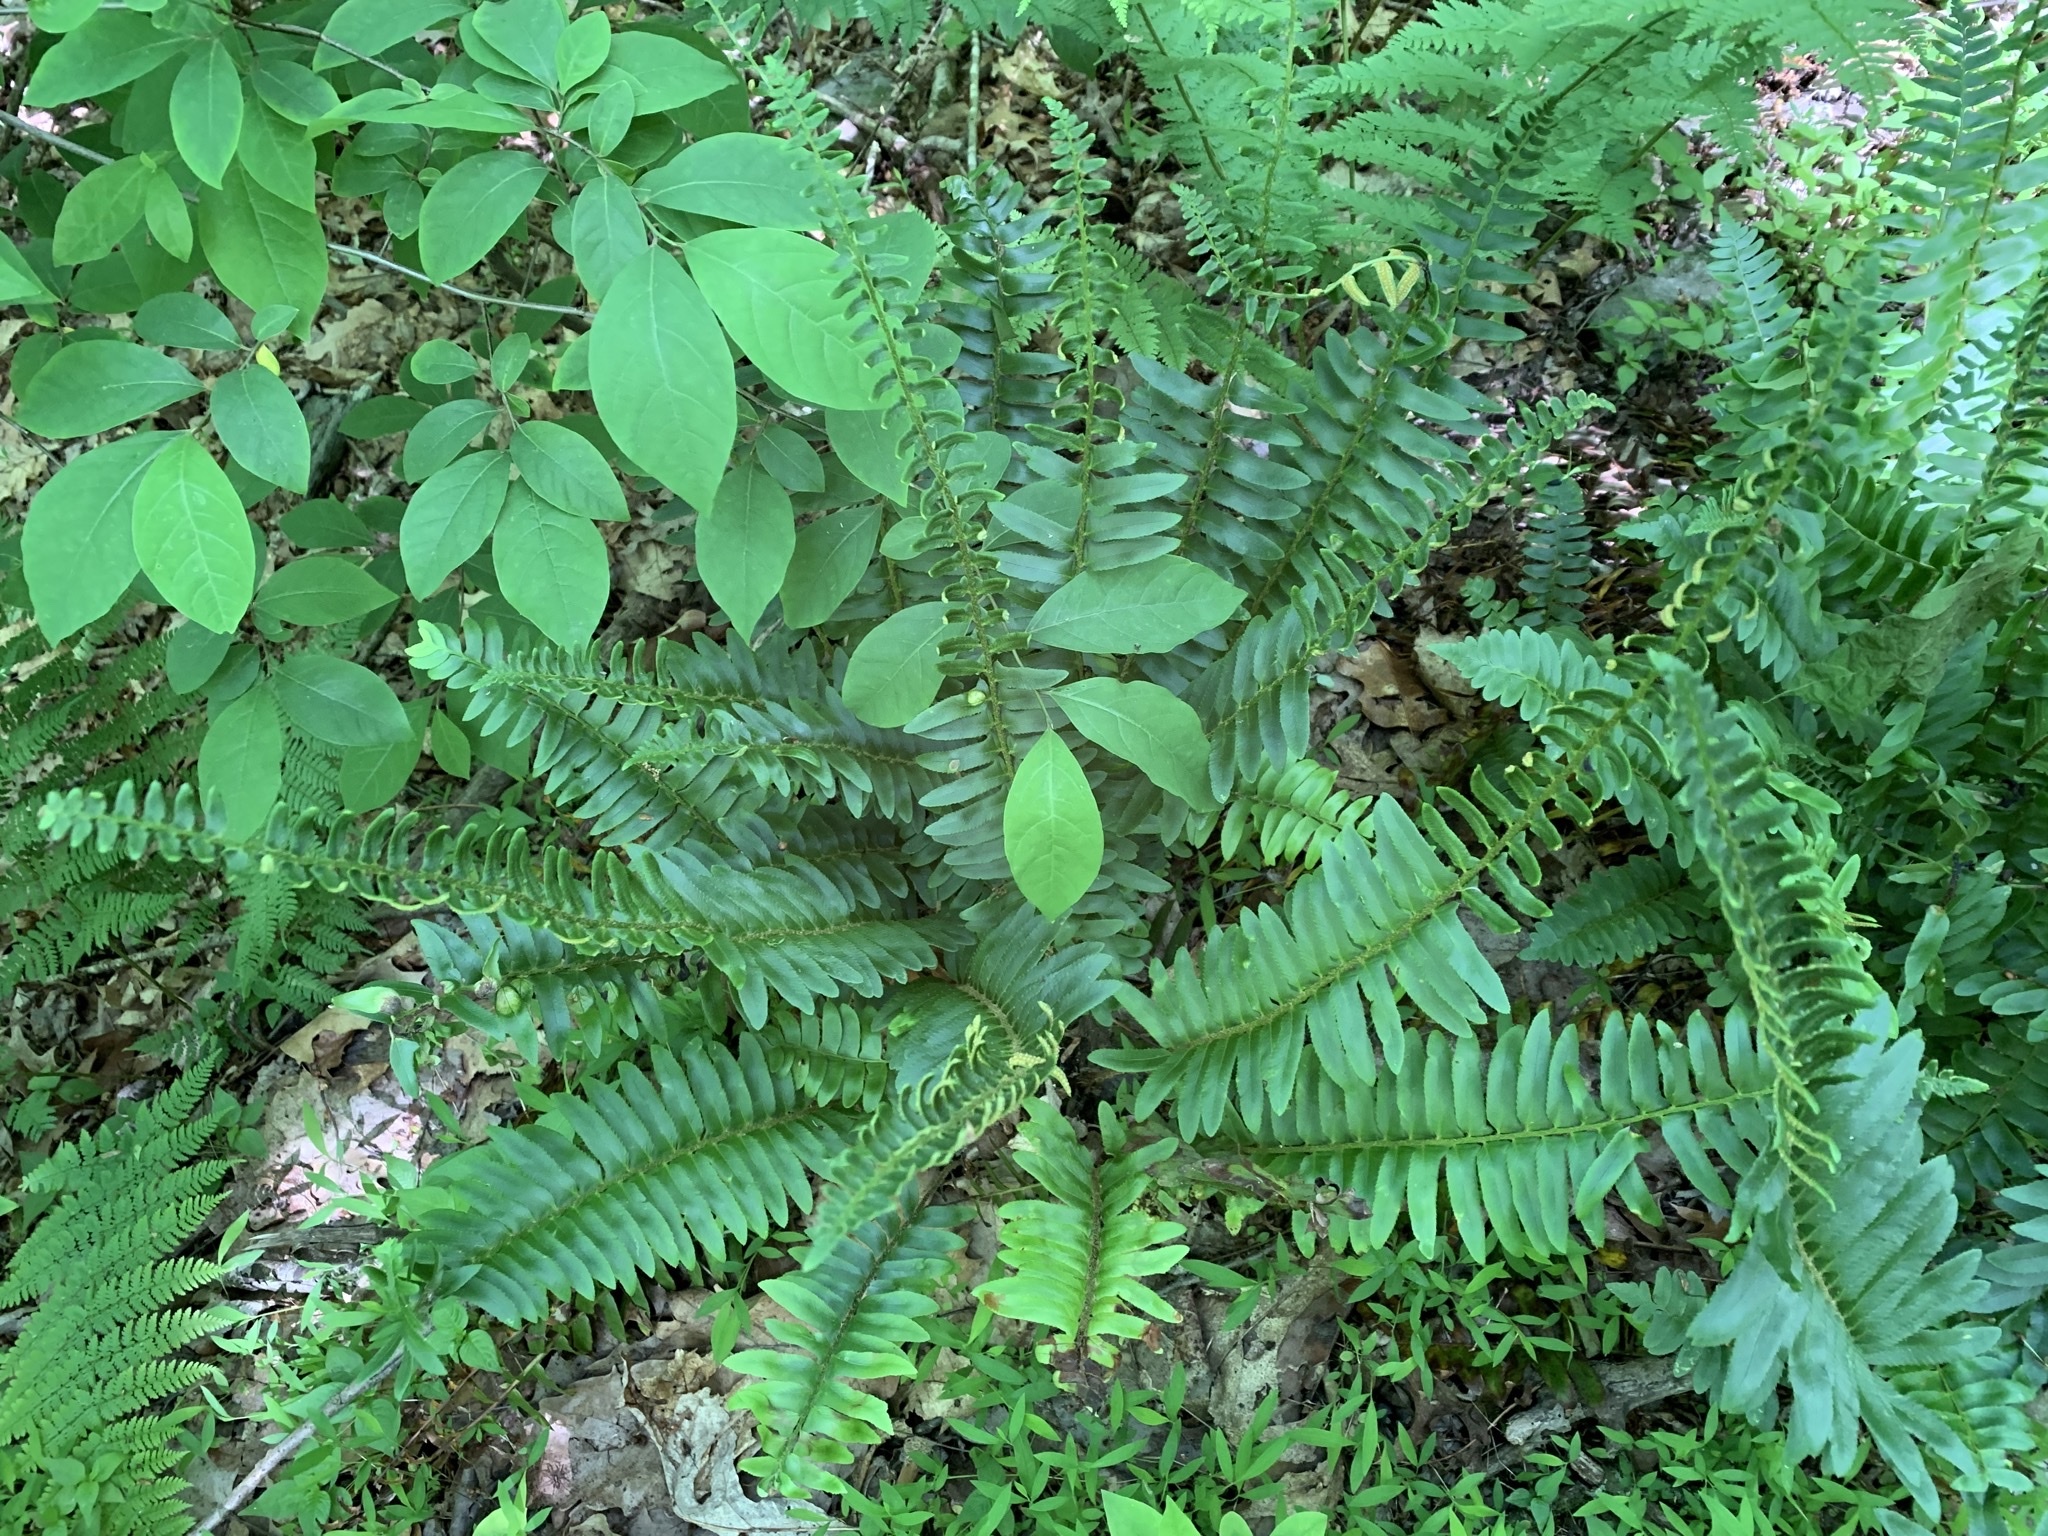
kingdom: Plantae
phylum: Tracheophyta
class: Polypodiopsida
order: Polypodiales
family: Dryopteridaceae
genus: Polystichum
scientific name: Polystichum acrostichoides
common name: Christmas fern
